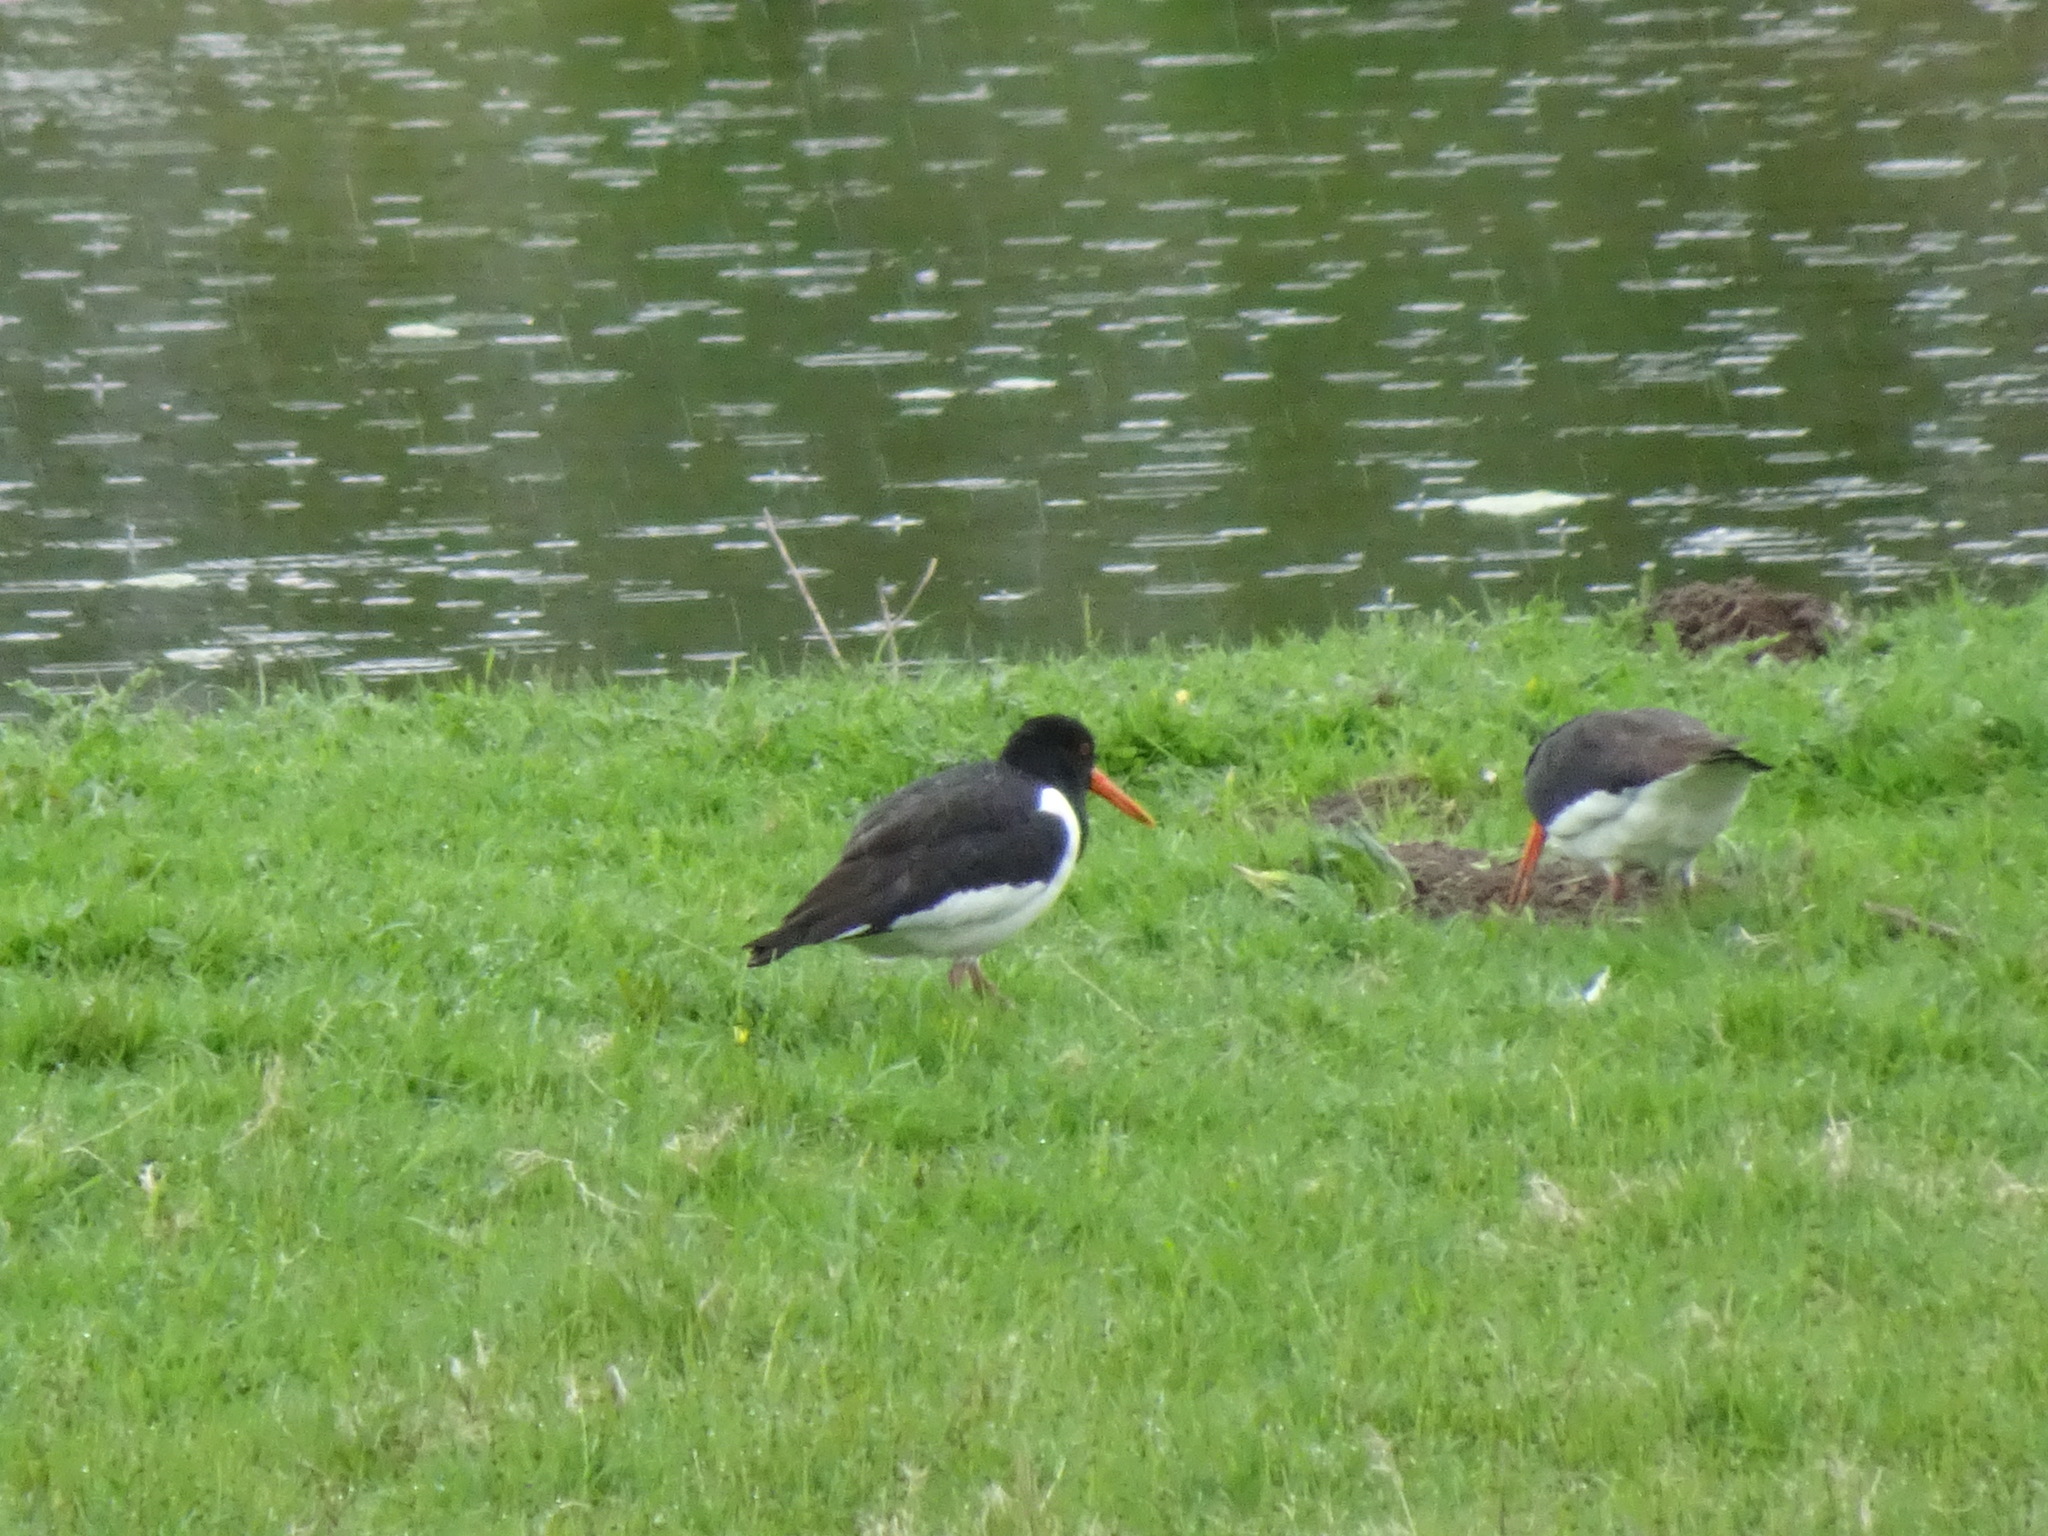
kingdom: Animalia
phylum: Chordata
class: Aves
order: Charadriiformes
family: Haematopodidae
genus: Haematopus
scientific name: Haematopus ostralegus
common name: Eurasian oystercatcher
